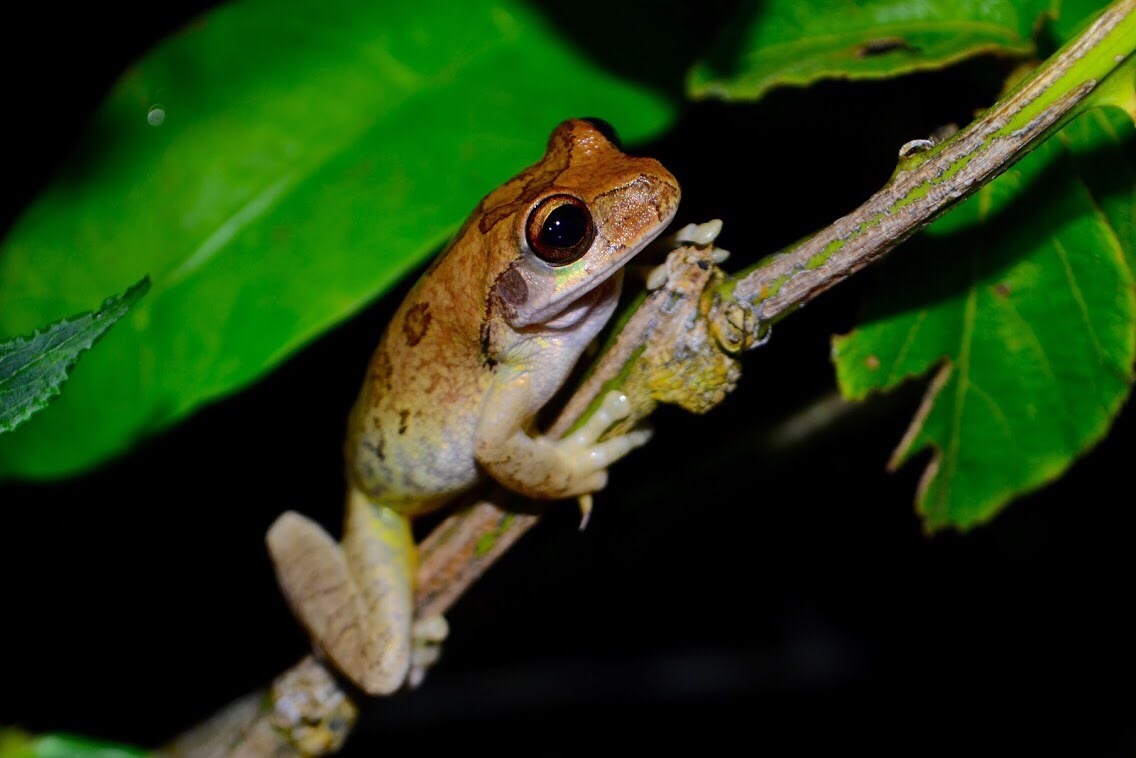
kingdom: Animalia
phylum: Chordata
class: Amphibia
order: Anura
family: Hylidae
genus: Smilisca
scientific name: Smilisca baudinii
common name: Mexican smilisca
